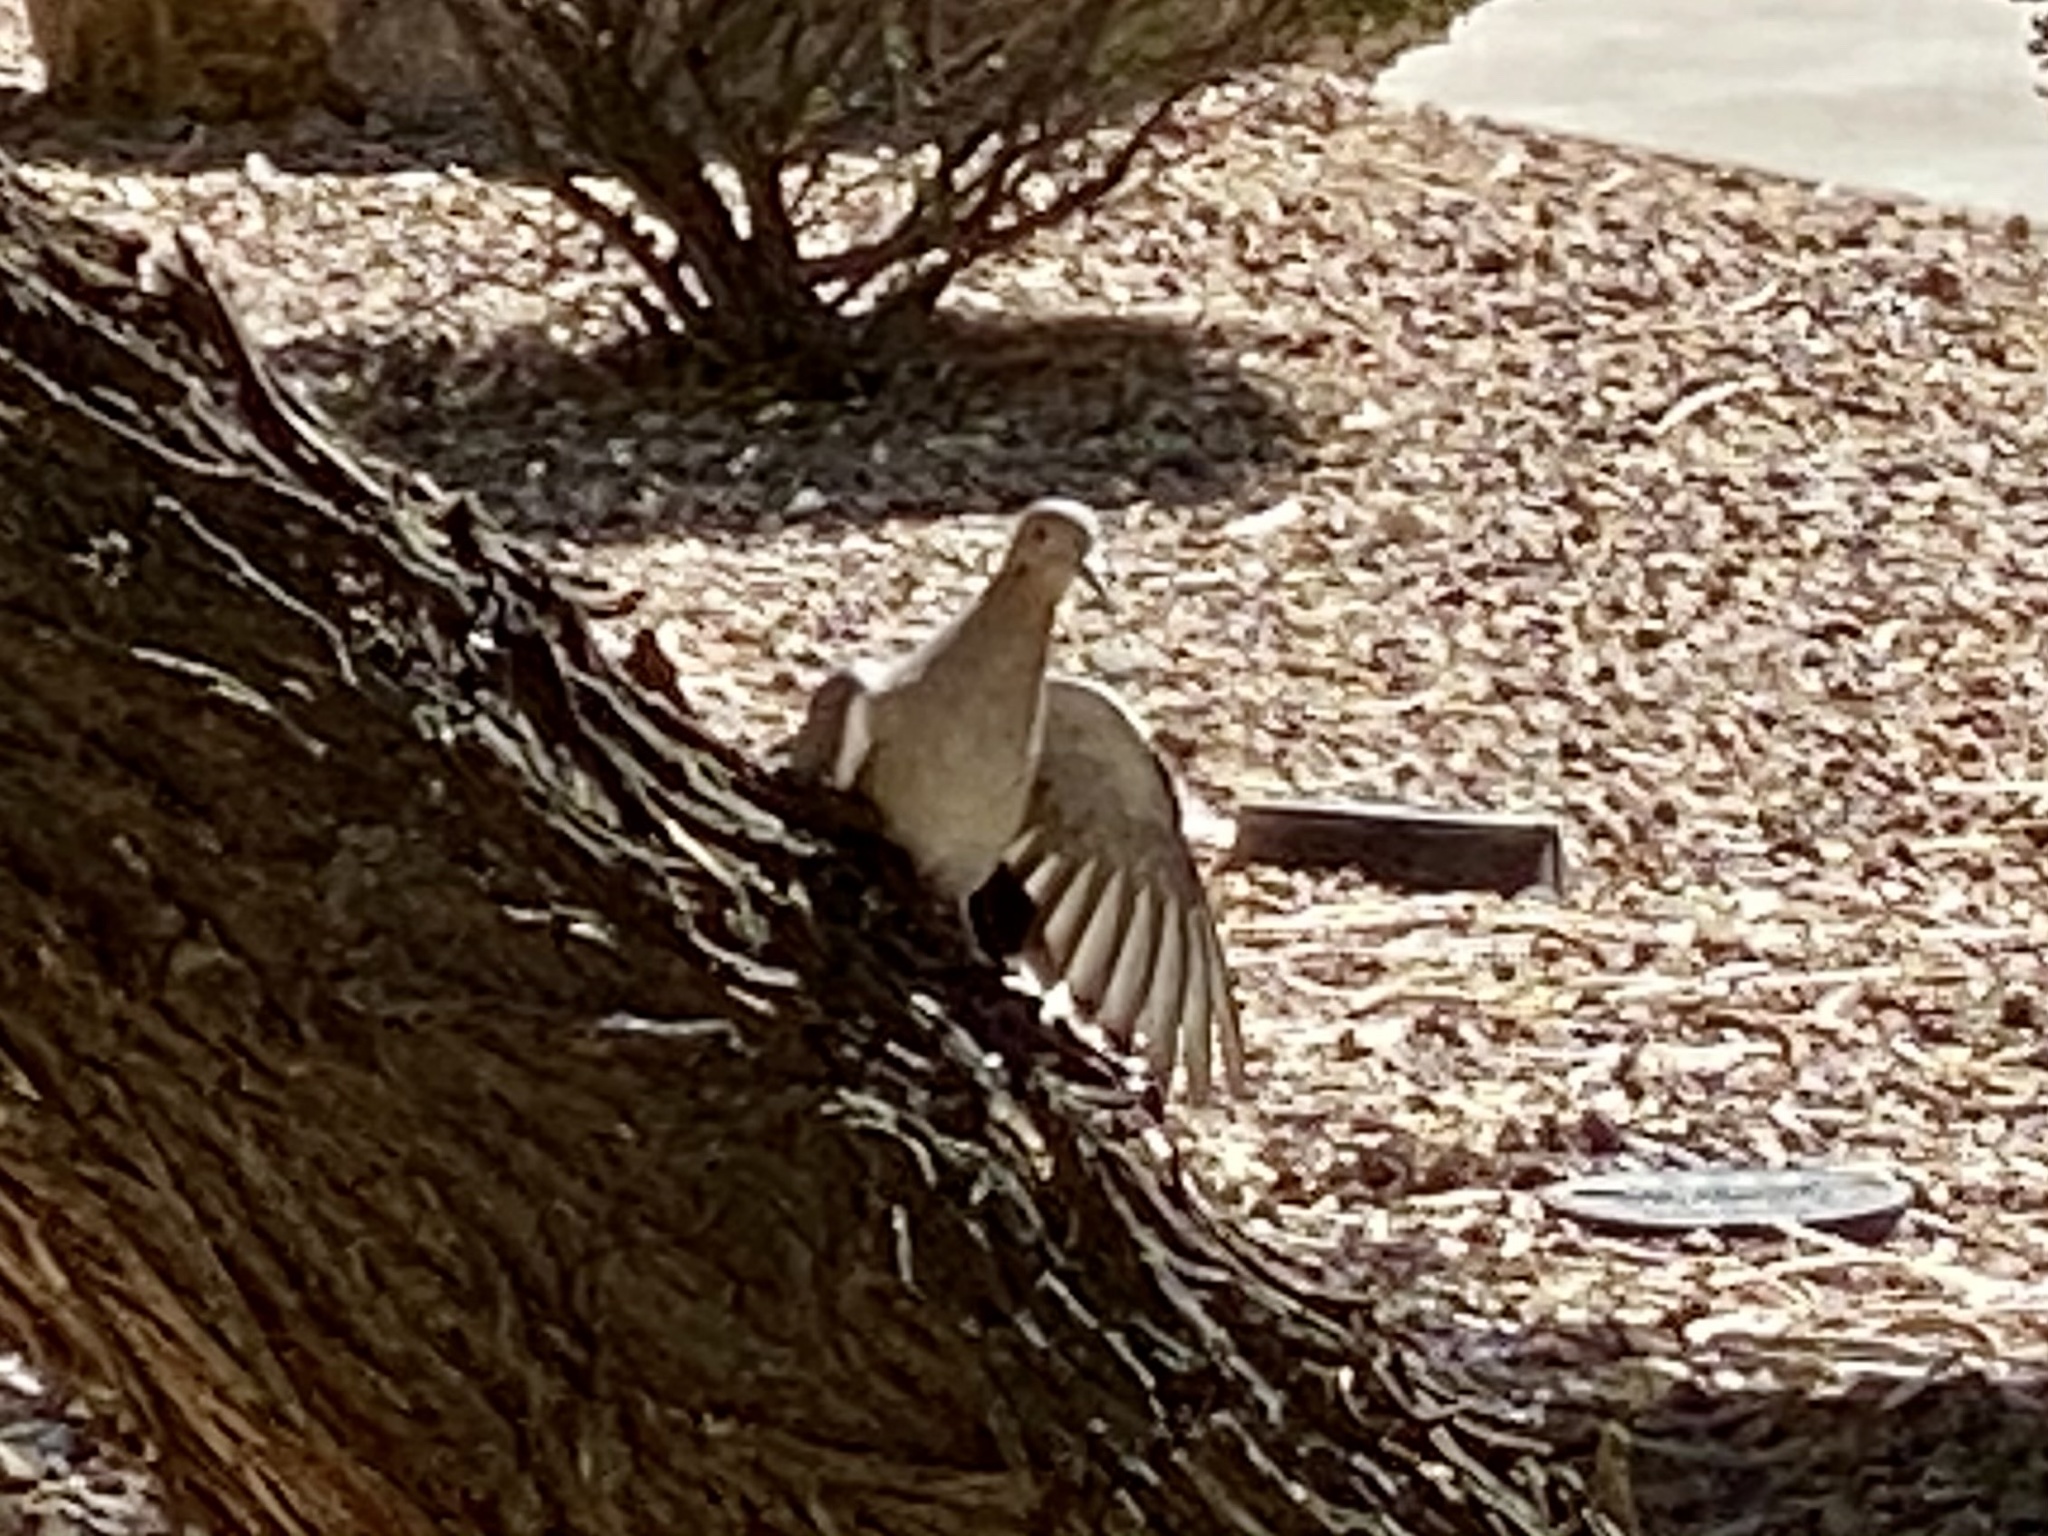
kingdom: Animalia
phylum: Chordata
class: Aves
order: Columbiformes
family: Columbidae
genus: Zenaida
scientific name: Zenaida asiatica
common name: White-winged dove
